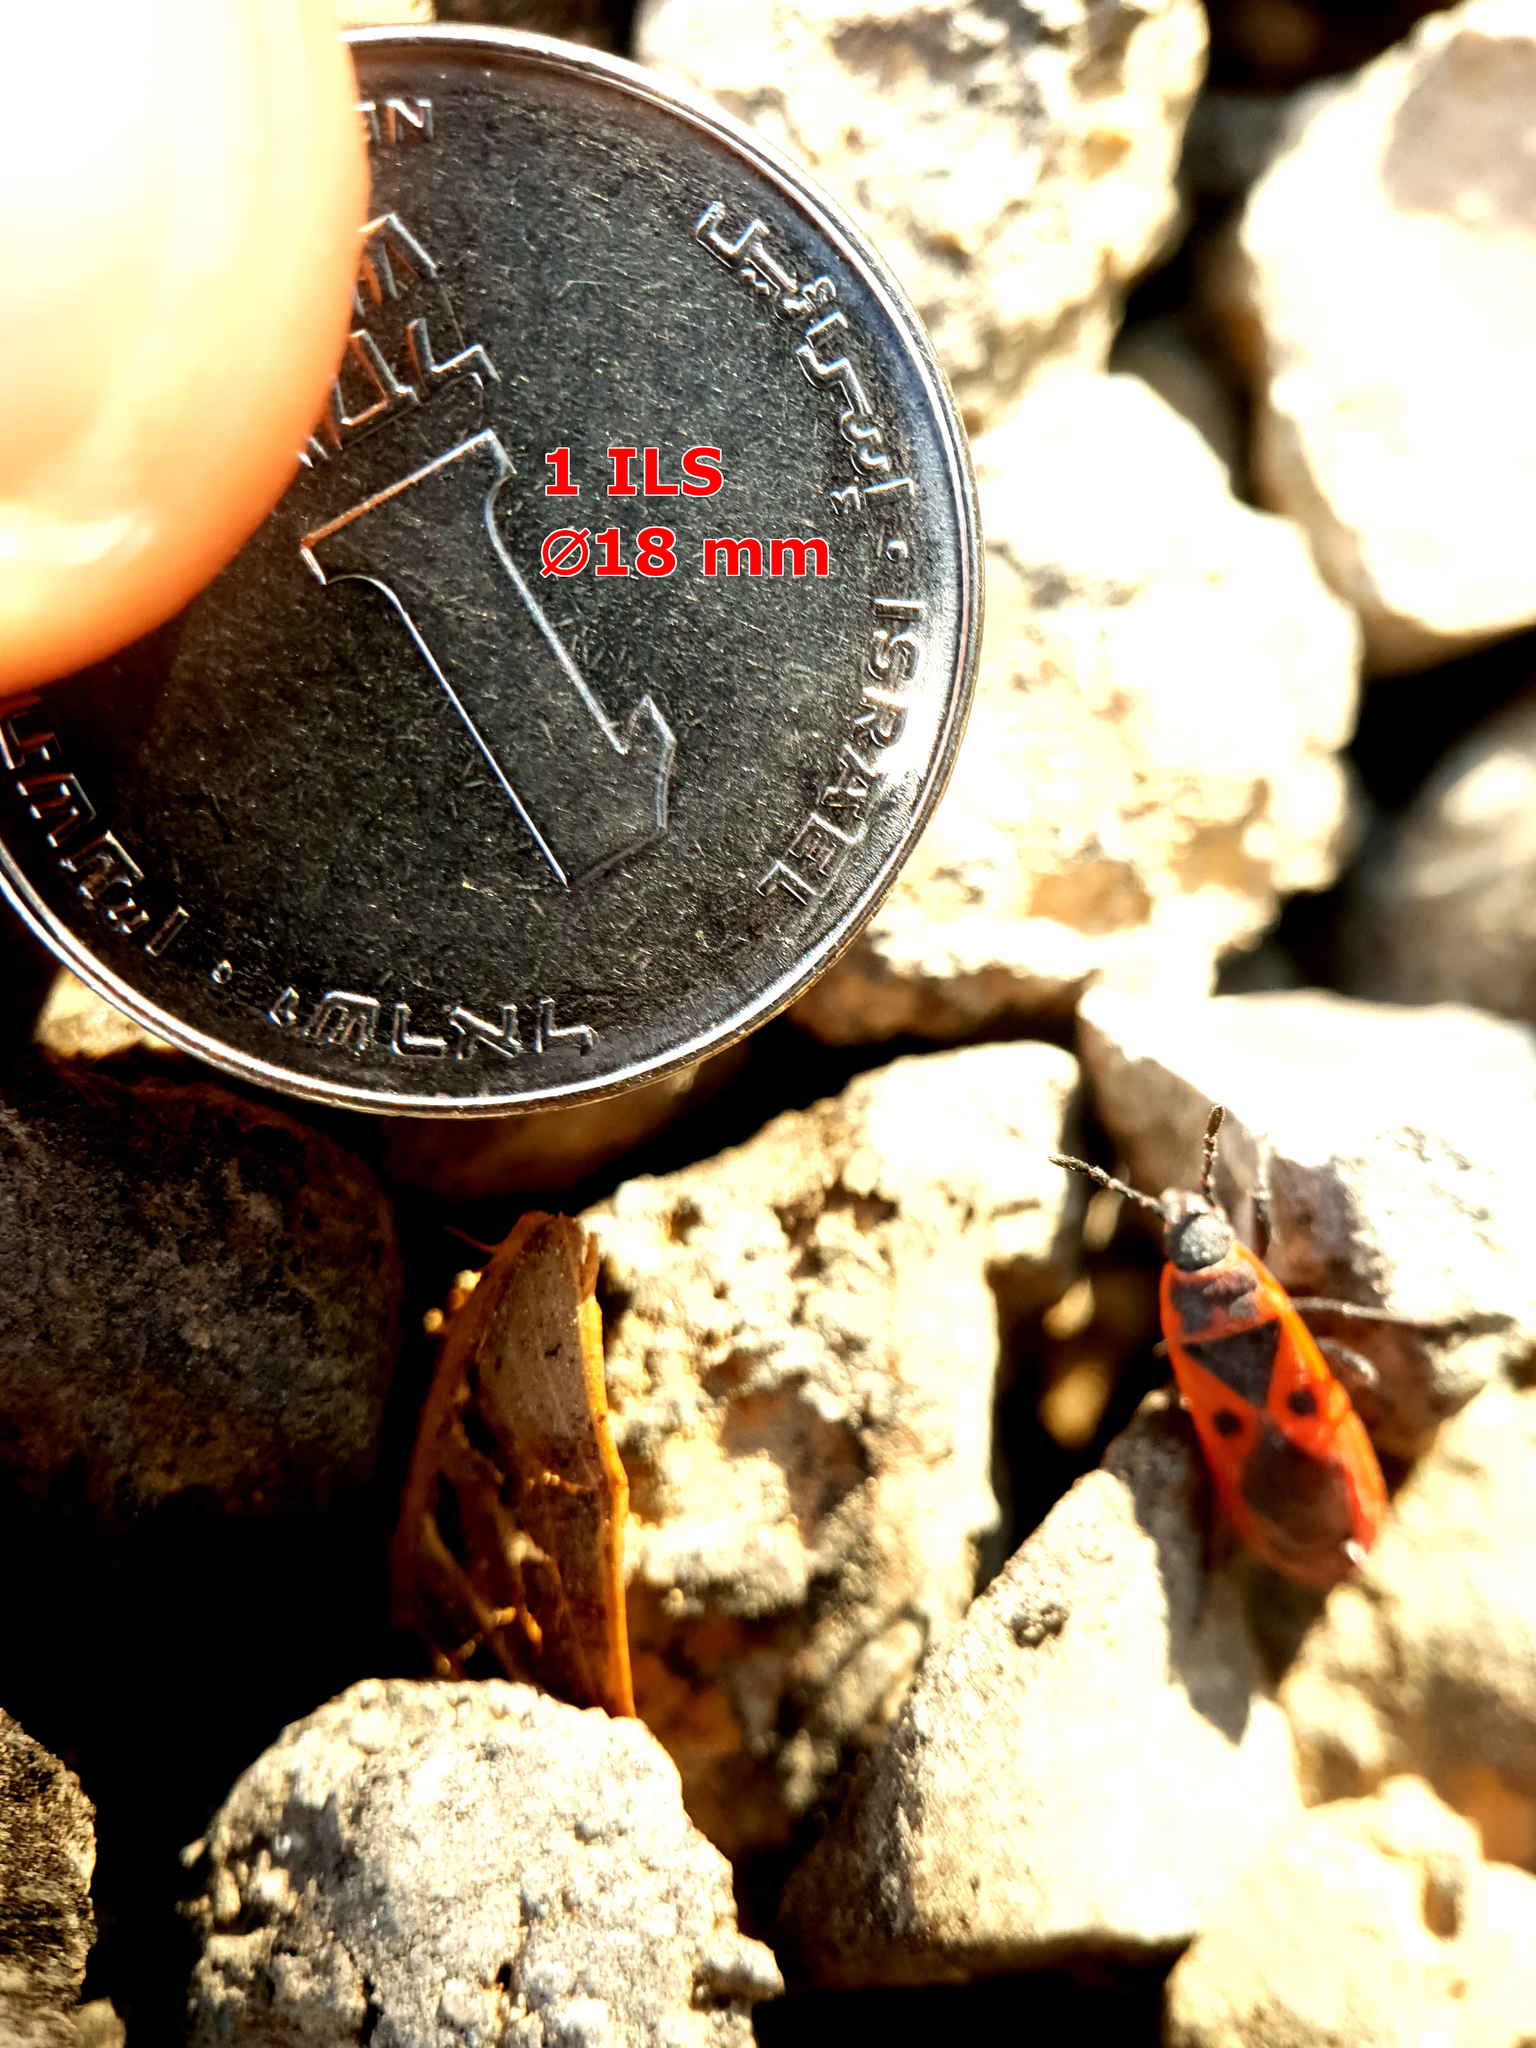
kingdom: Animalia
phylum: Arthropoda
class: Insecta
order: Hemiptera
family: Pyrrhocoridae
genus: Scantius
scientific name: Scantius aegyptius
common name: Red bug
